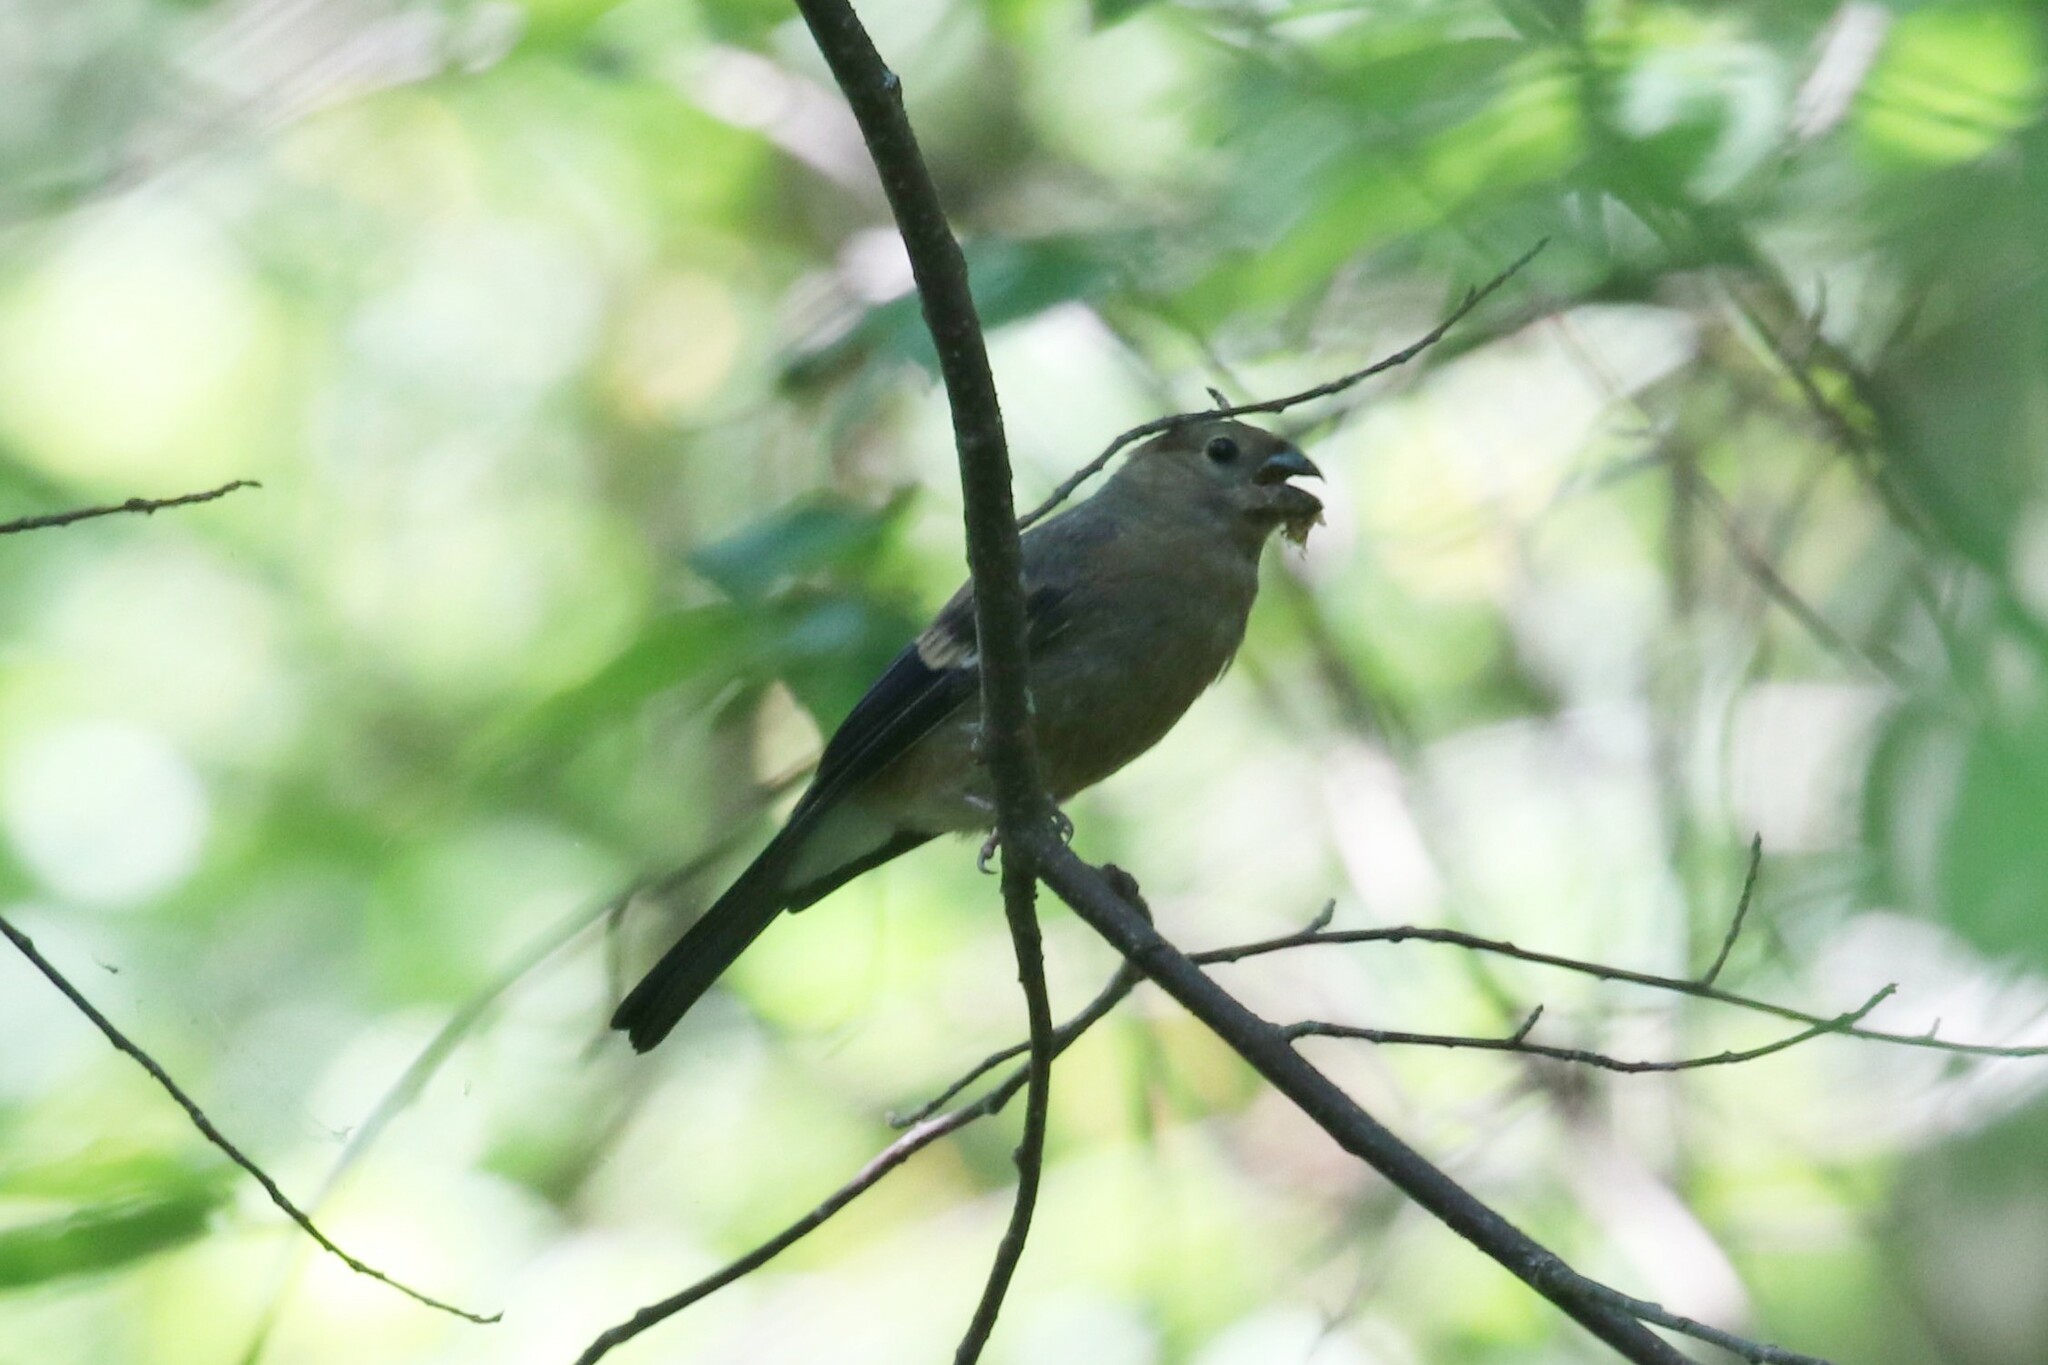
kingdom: Animalia
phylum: Chordata
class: Aves
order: Passeriformes
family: Fringillidae
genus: Pyrrhula
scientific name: Pyrrhula pyrrhula
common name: Eurasian bullfinch
